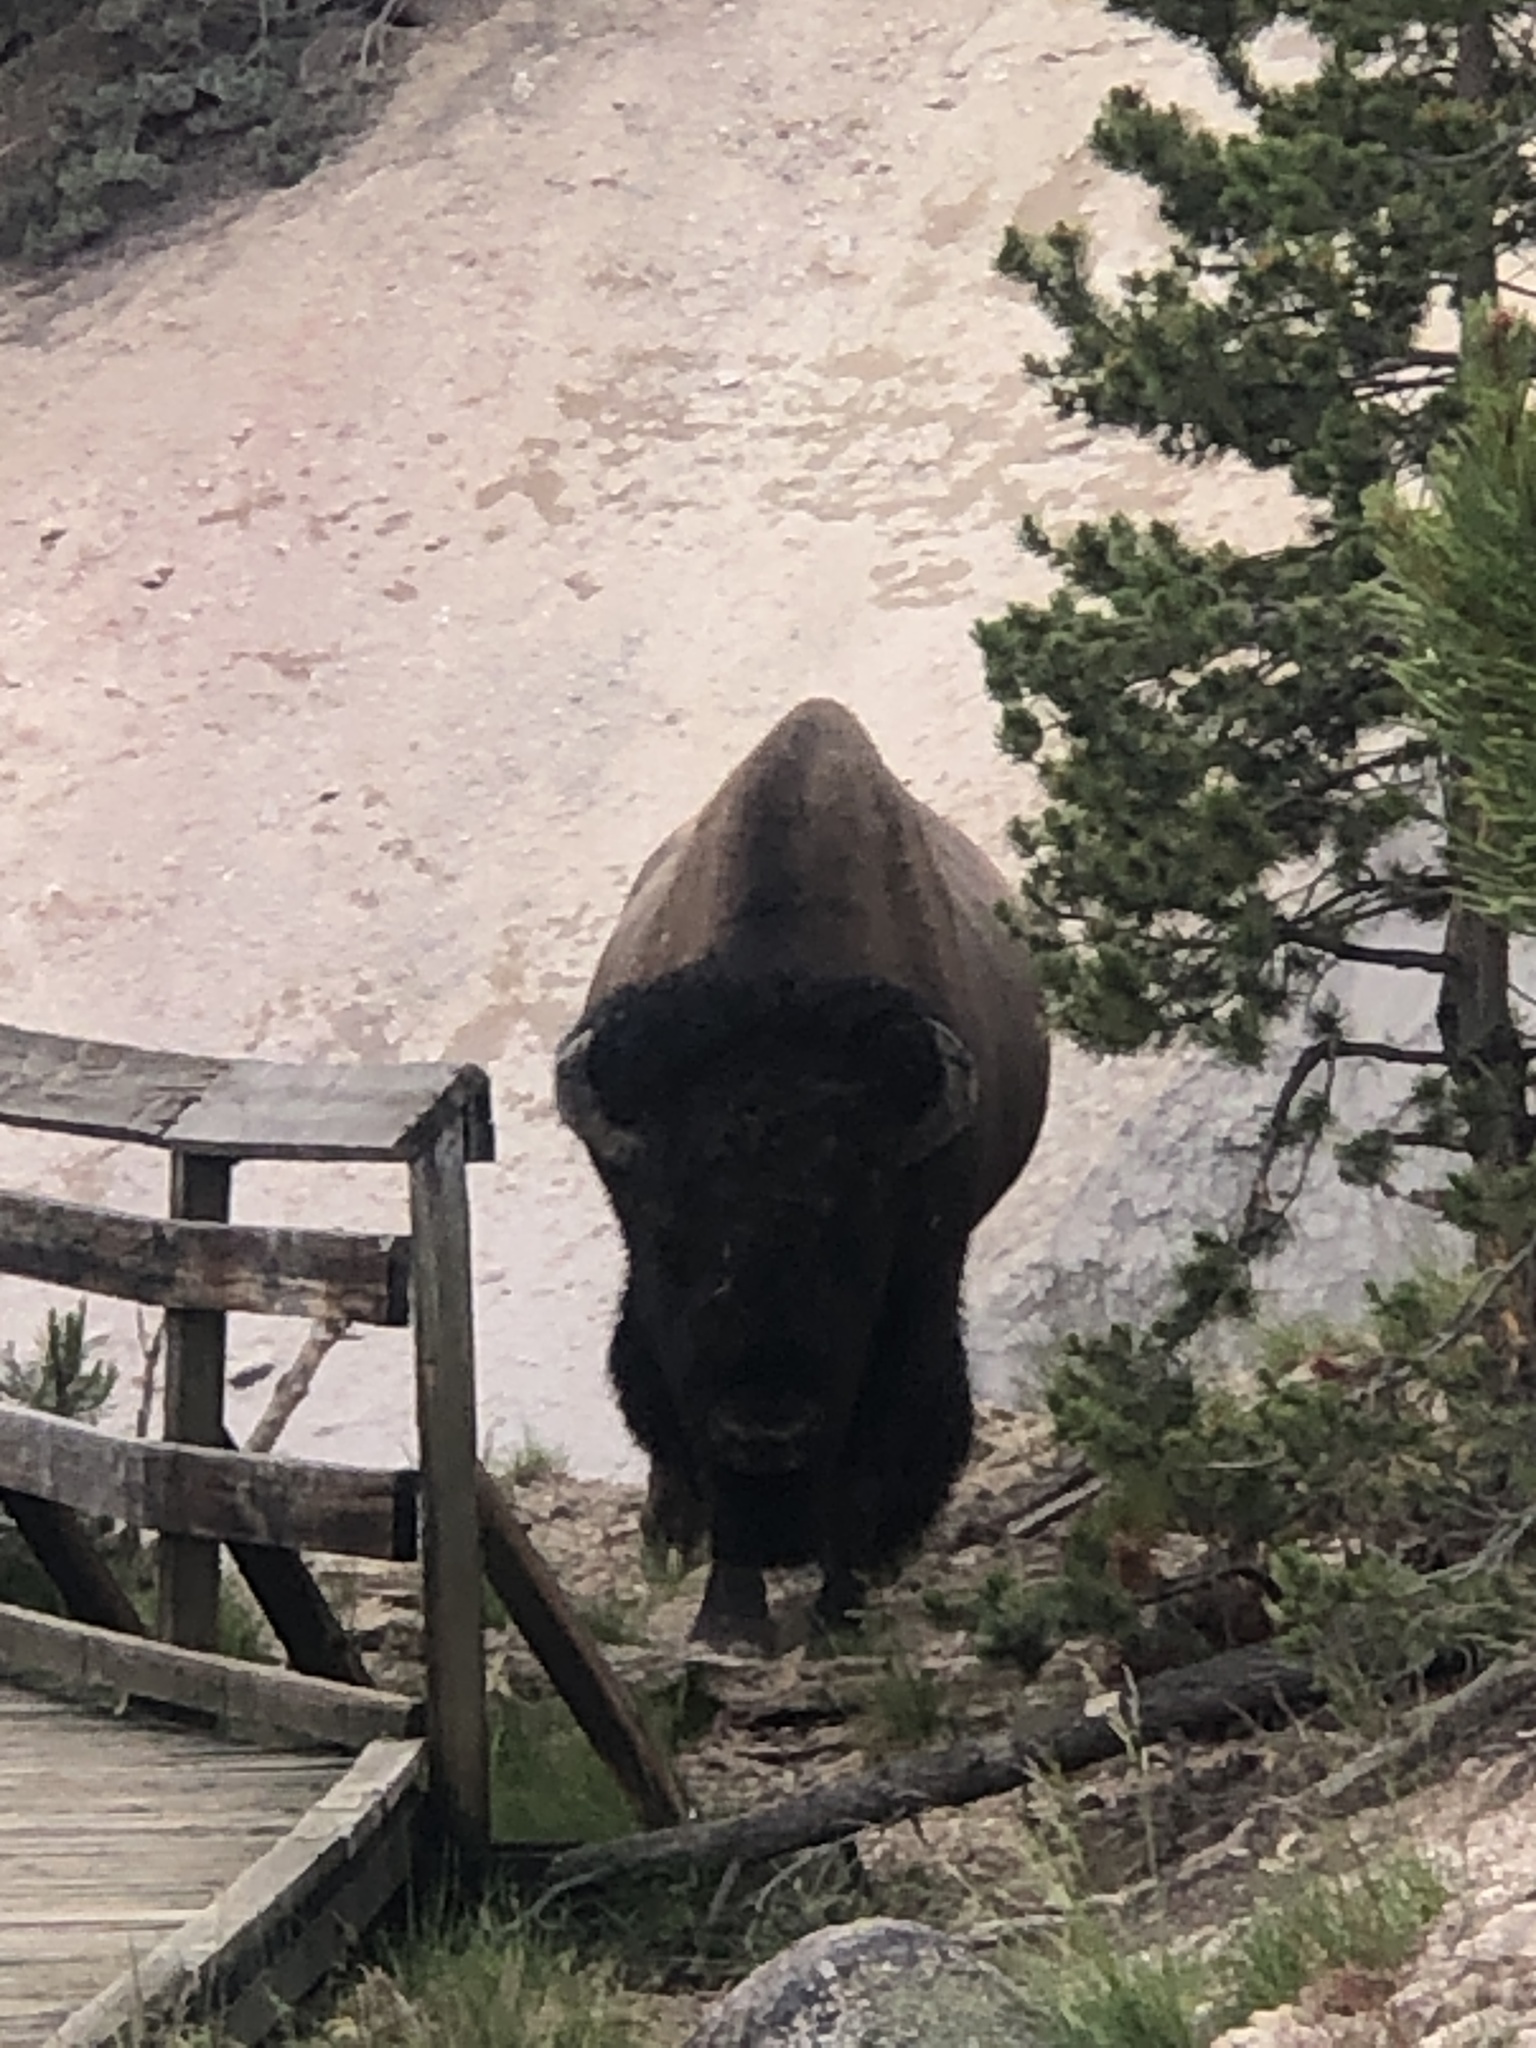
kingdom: Animalia
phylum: Chordata
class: Mammalia
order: Artiodactyla
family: Bovidae
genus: Bison
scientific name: Bison bison
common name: American bison
